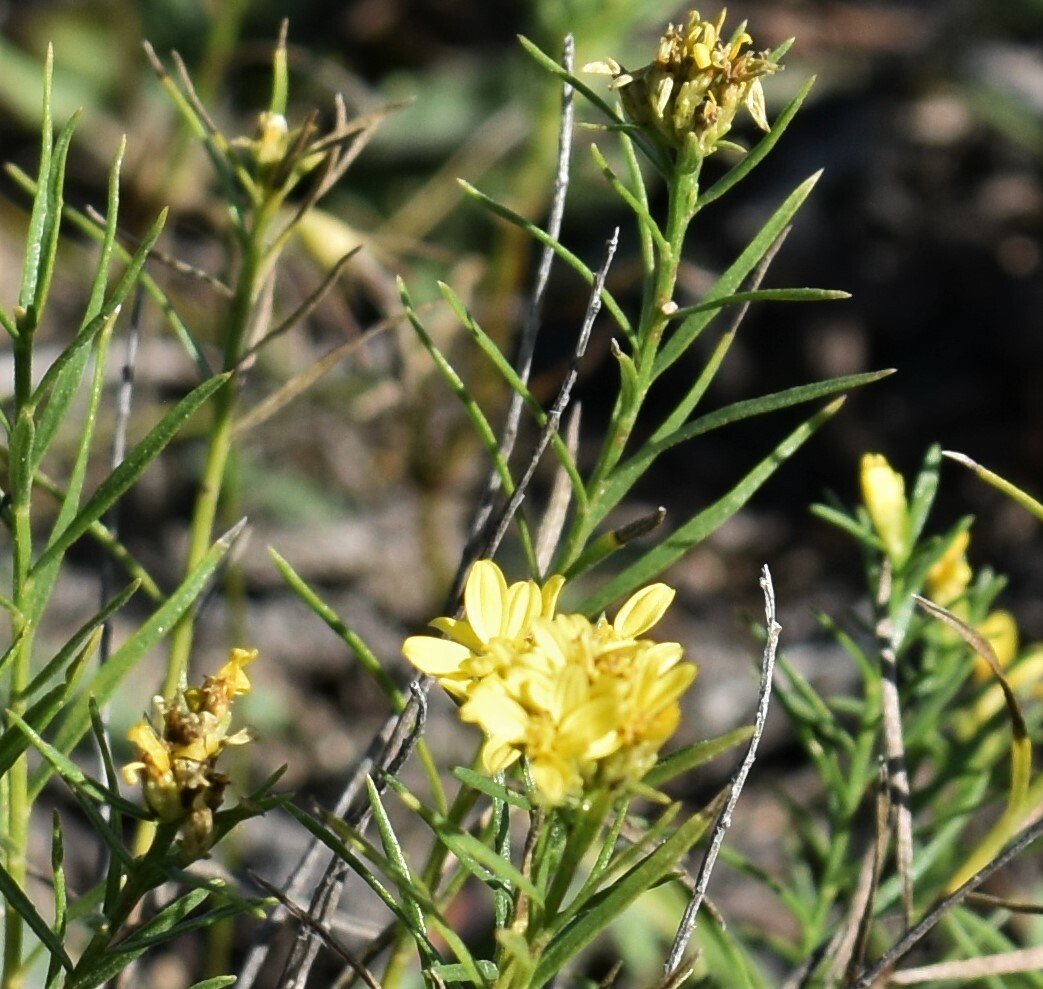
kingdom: Plantae
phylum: Tracheophyta
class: Magnoliopsida
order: Asterales
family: Asteraceae
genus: Gutierrezia
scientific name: Gutierrezia sarothrae
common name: Broom snakeweed
